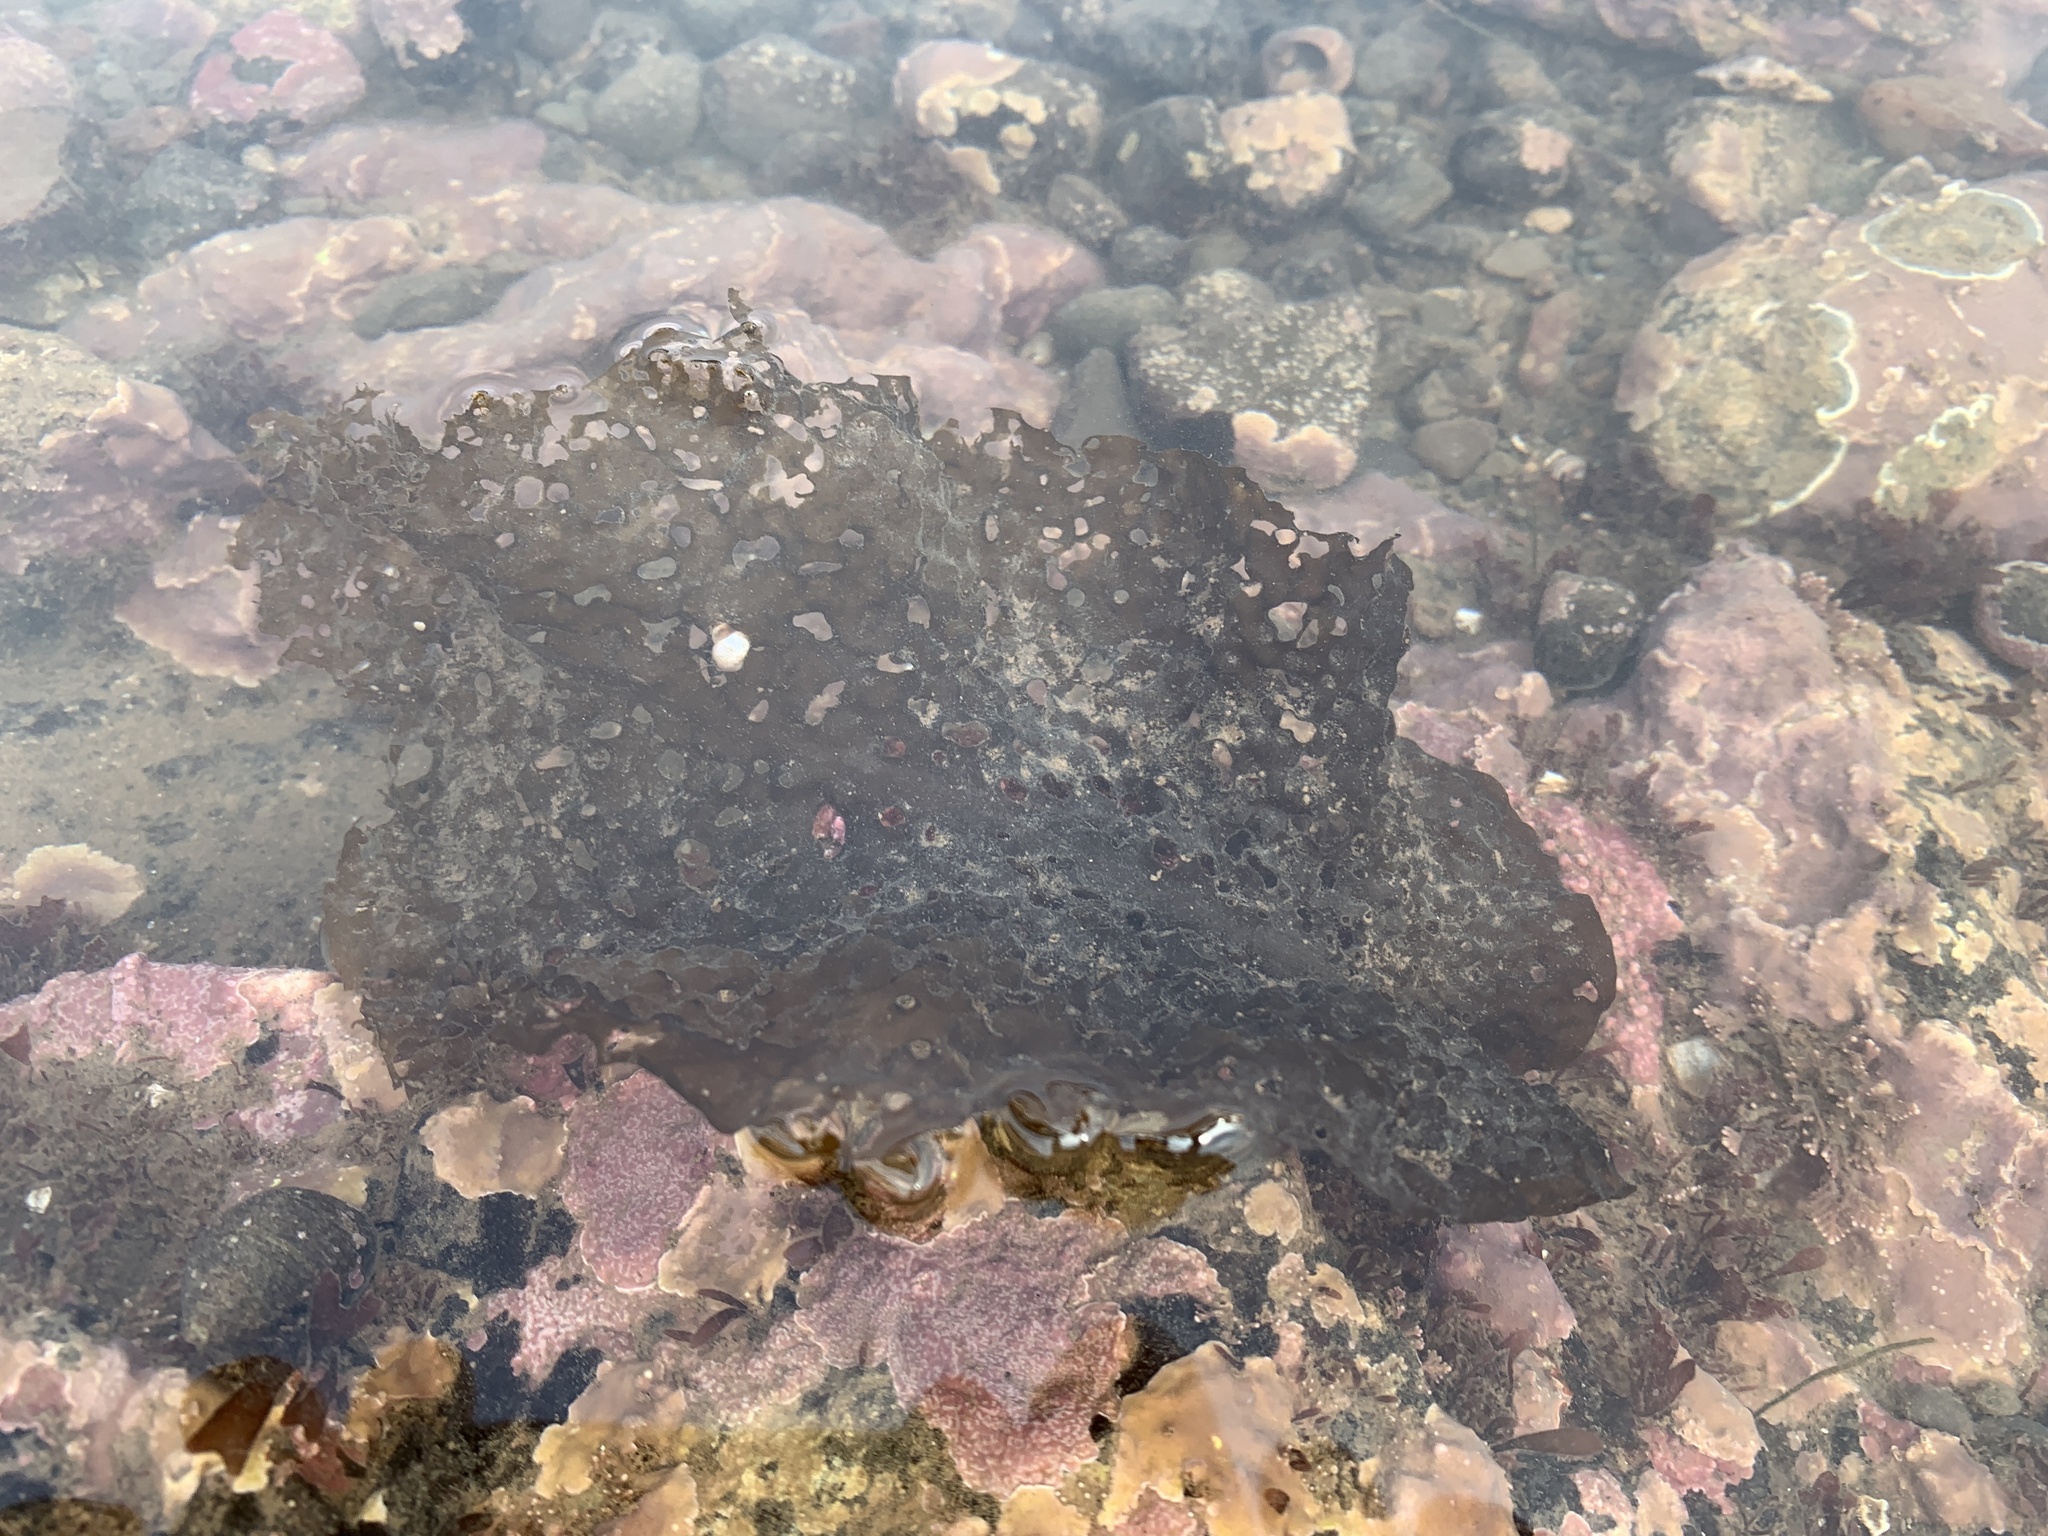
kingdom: Chromista
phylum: Ochrophyta
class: Phaeophyceae
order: Laminariales
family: Costariaceae
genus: Agarum
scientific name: Agarum clathratum
